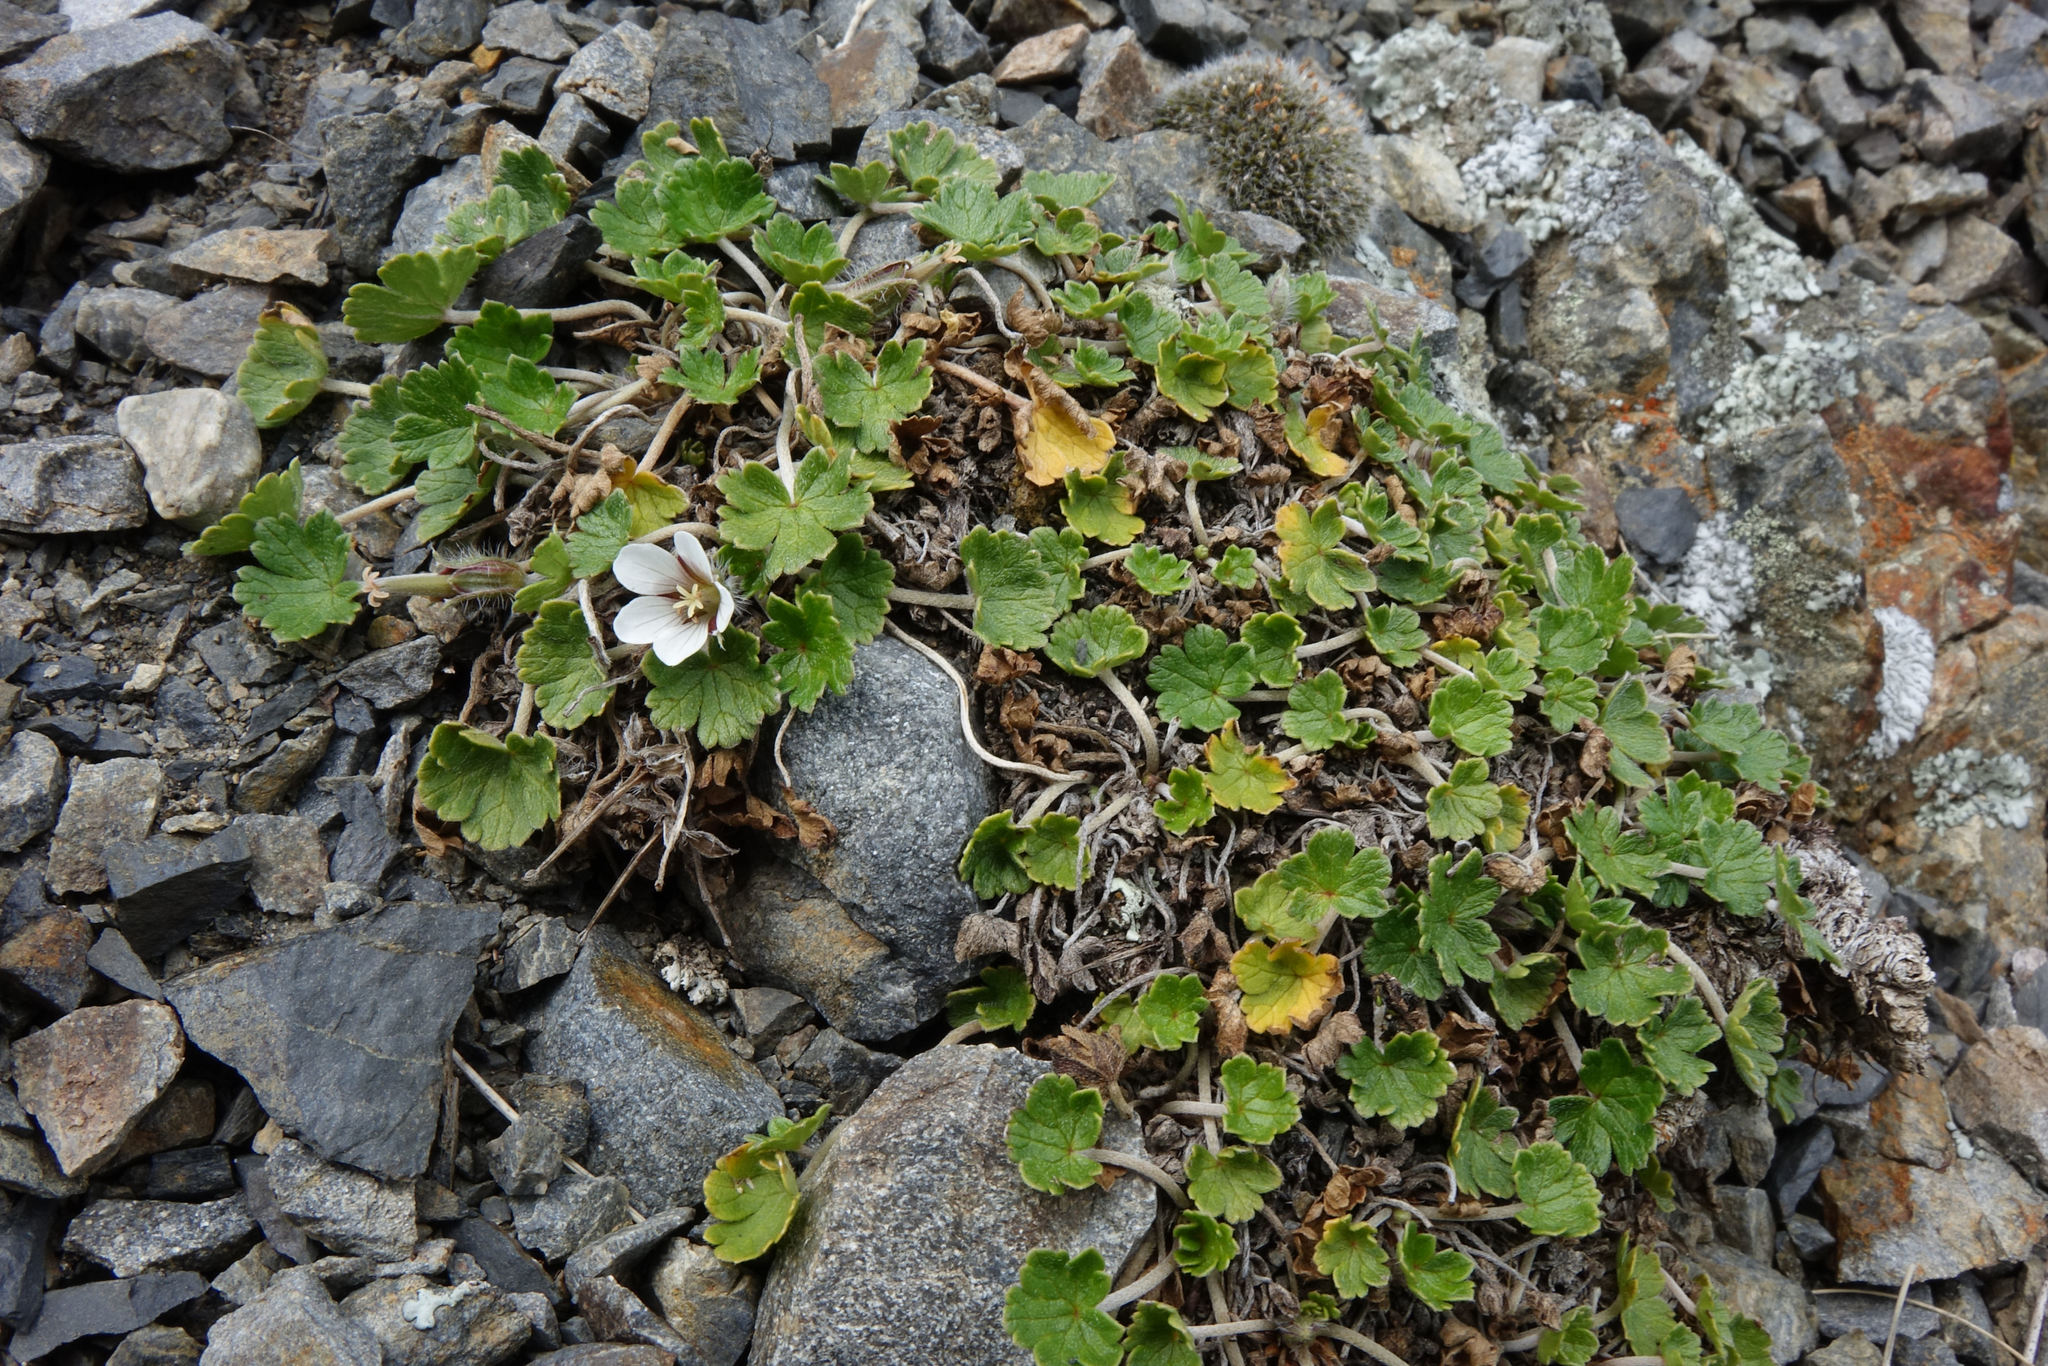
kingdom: Plantae
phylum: Tracheophyta
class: Magnoliopsida
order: Geraniales
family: Geraniaceae
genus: Geranium
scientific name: Geranium brevicaule
